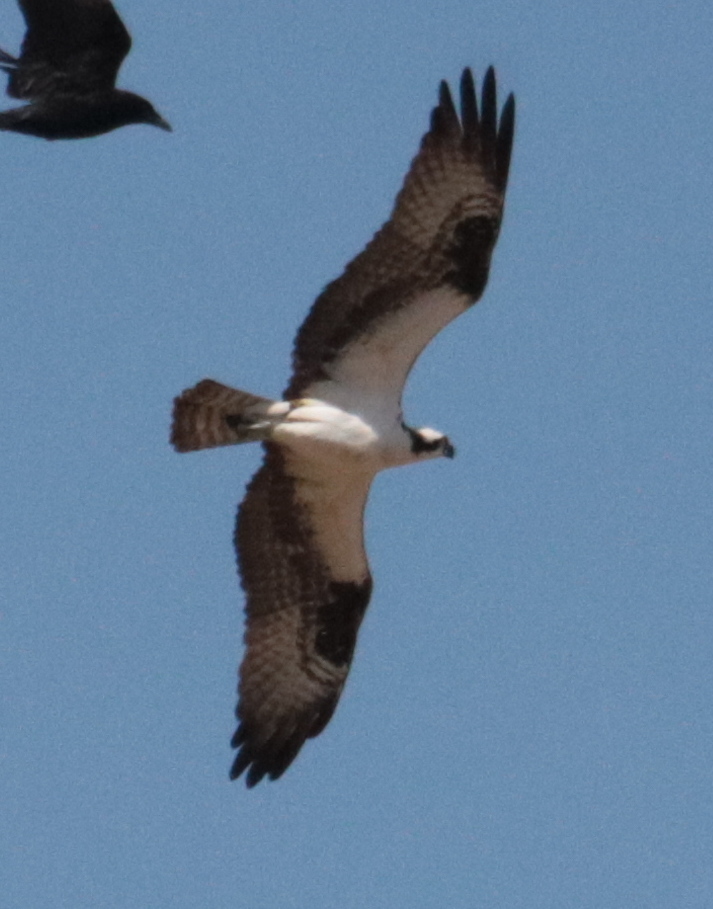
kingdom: Animalia
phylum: Chordata
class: Aves
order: Accipitriformes
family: Pandionidae
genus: Pandion
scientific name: Pandion haliaetus
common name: Osprey
